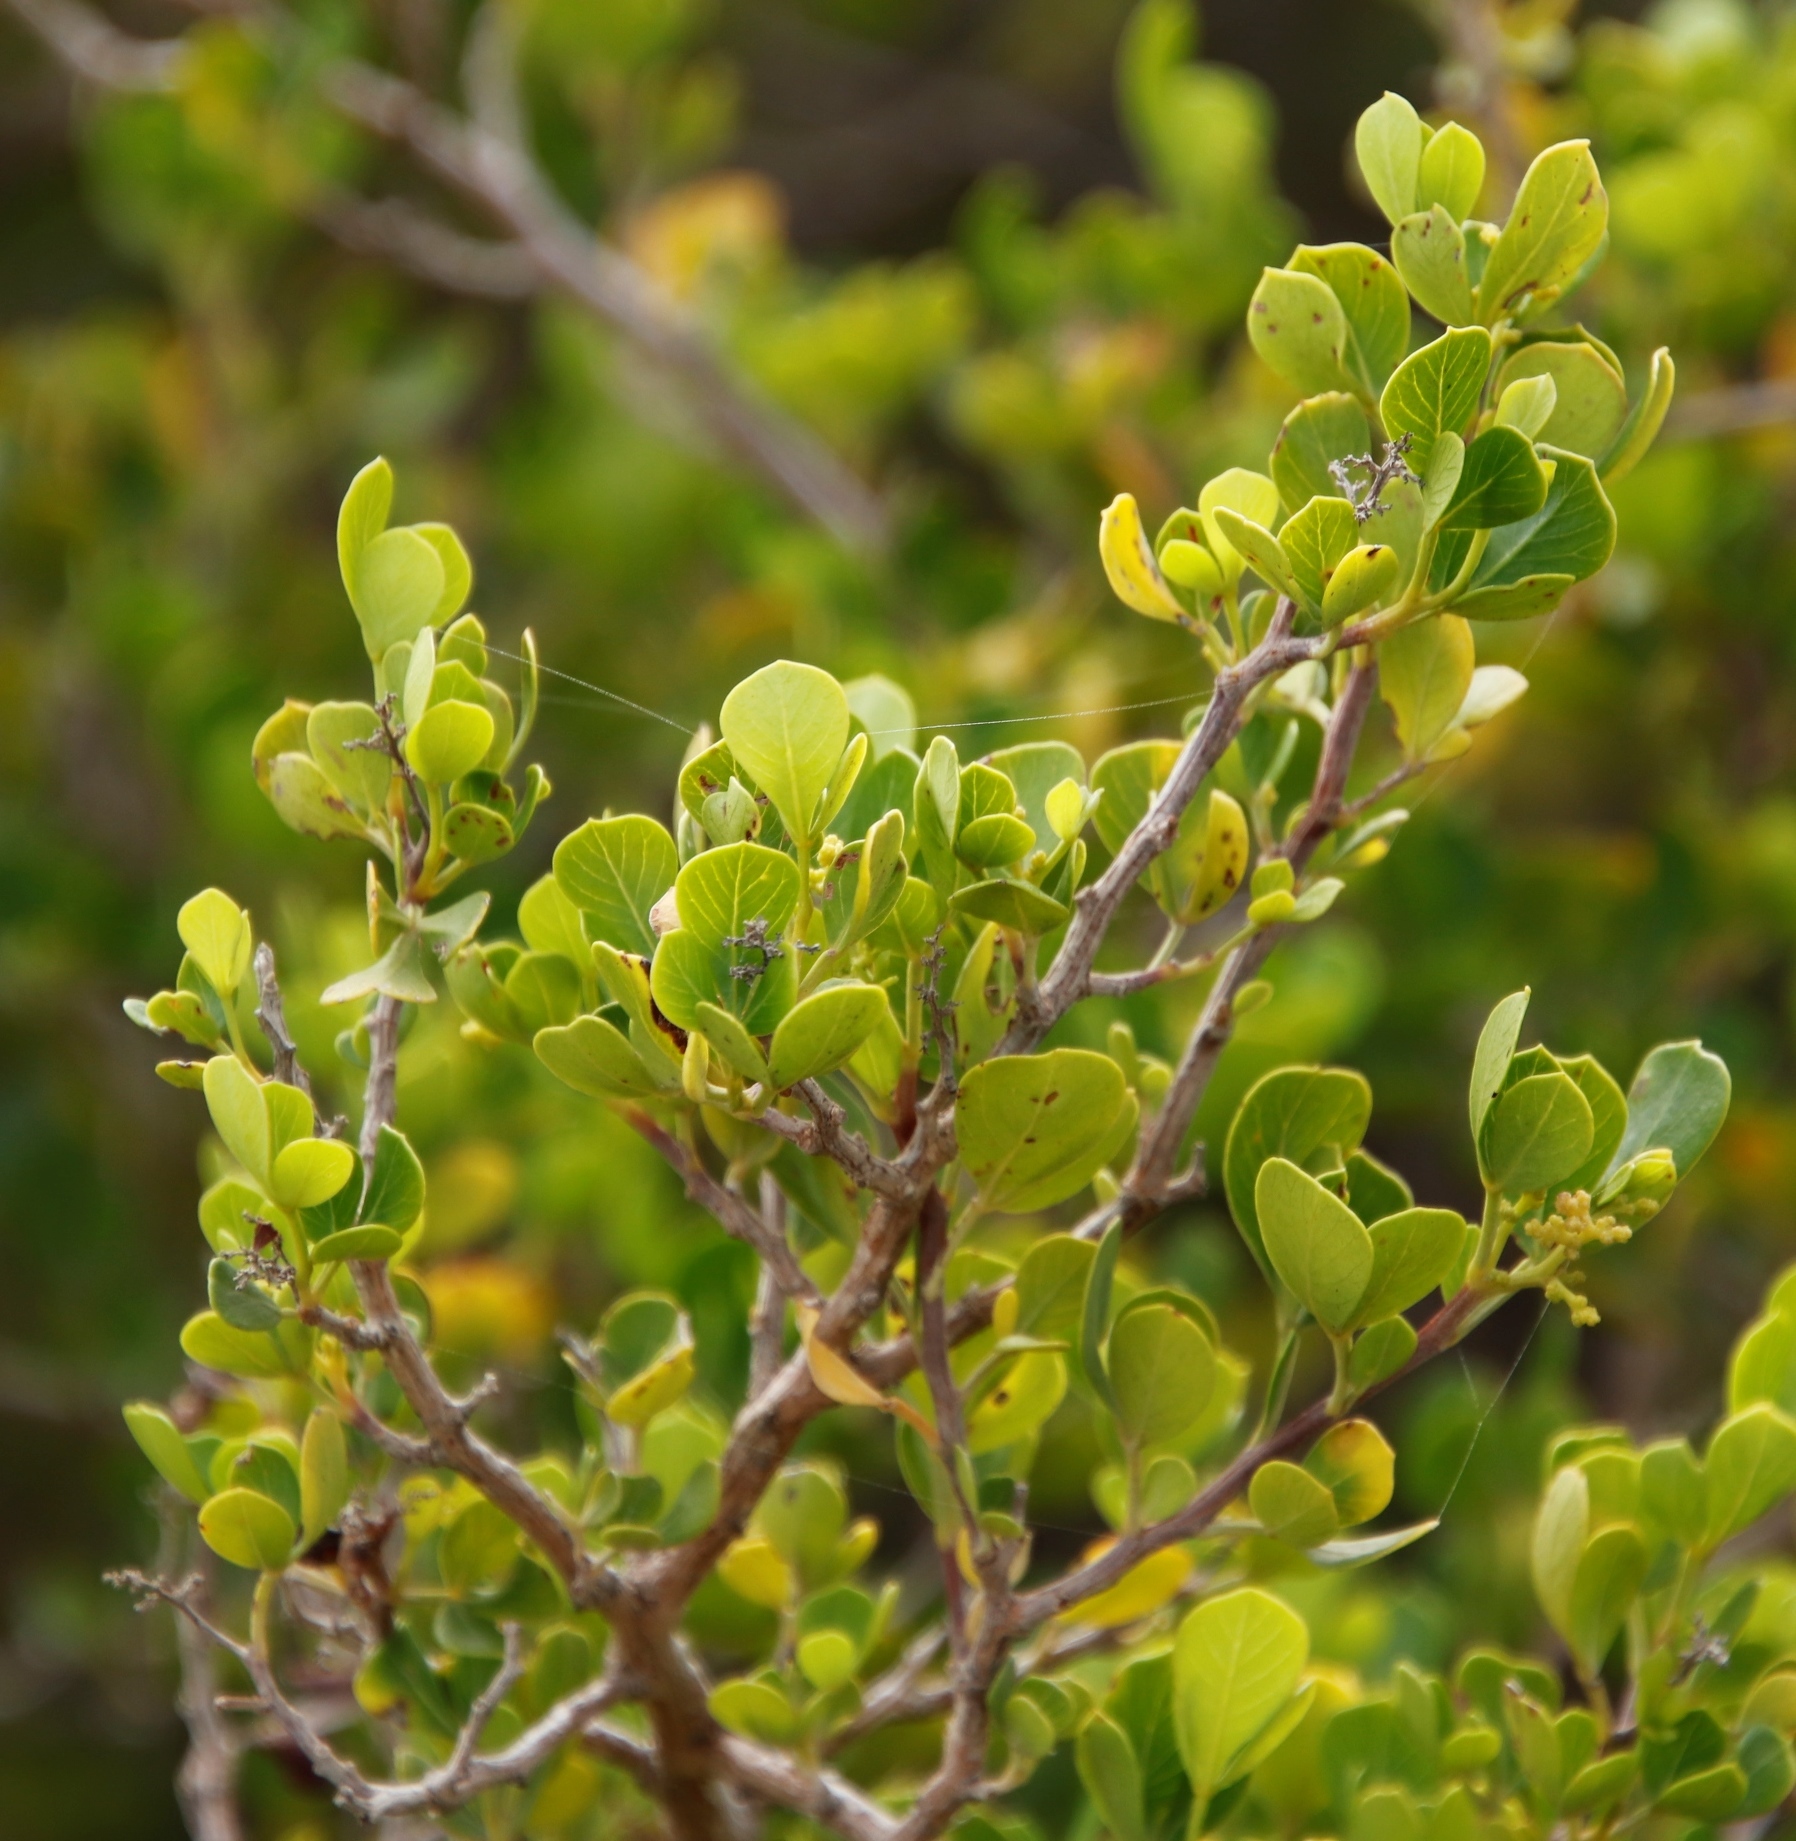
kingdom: Plantae
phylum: Tracheophyta
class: Magnoliopsida
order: Sapindales
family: Anacardiaceae
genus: Searsia
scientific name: Searsia glauca
